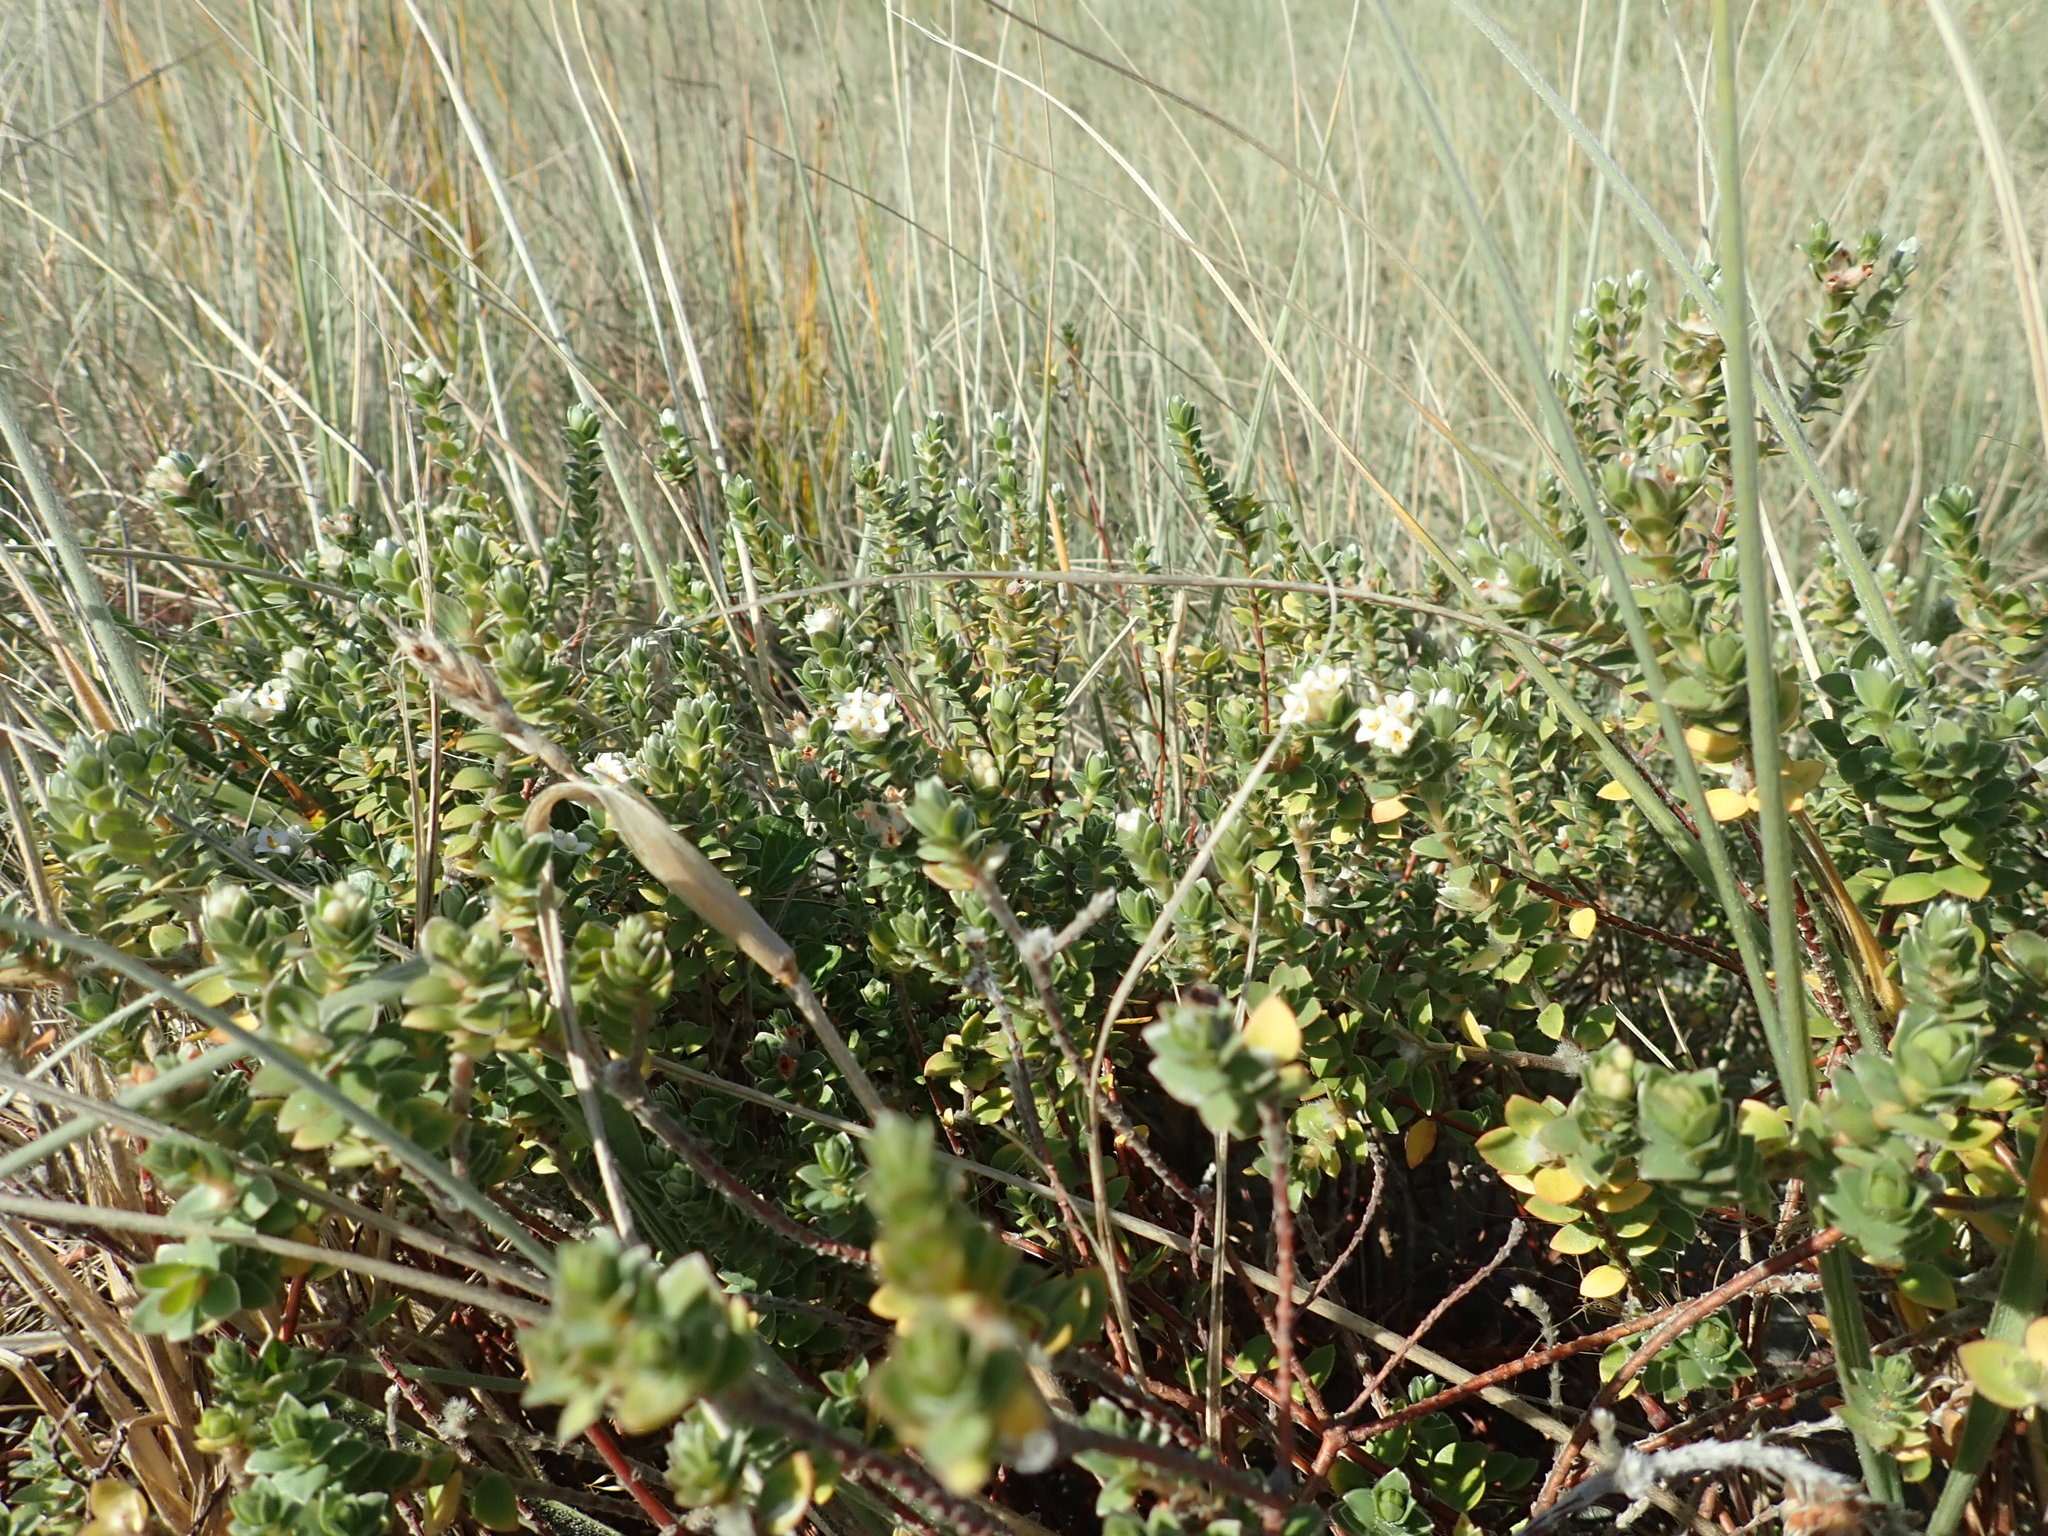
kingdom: Plantae
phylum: Tracheophyta
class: Magnoliopsida
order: Malvales
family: Thymelaeaceae
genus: Pimelea
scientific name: Pimelea villosa
